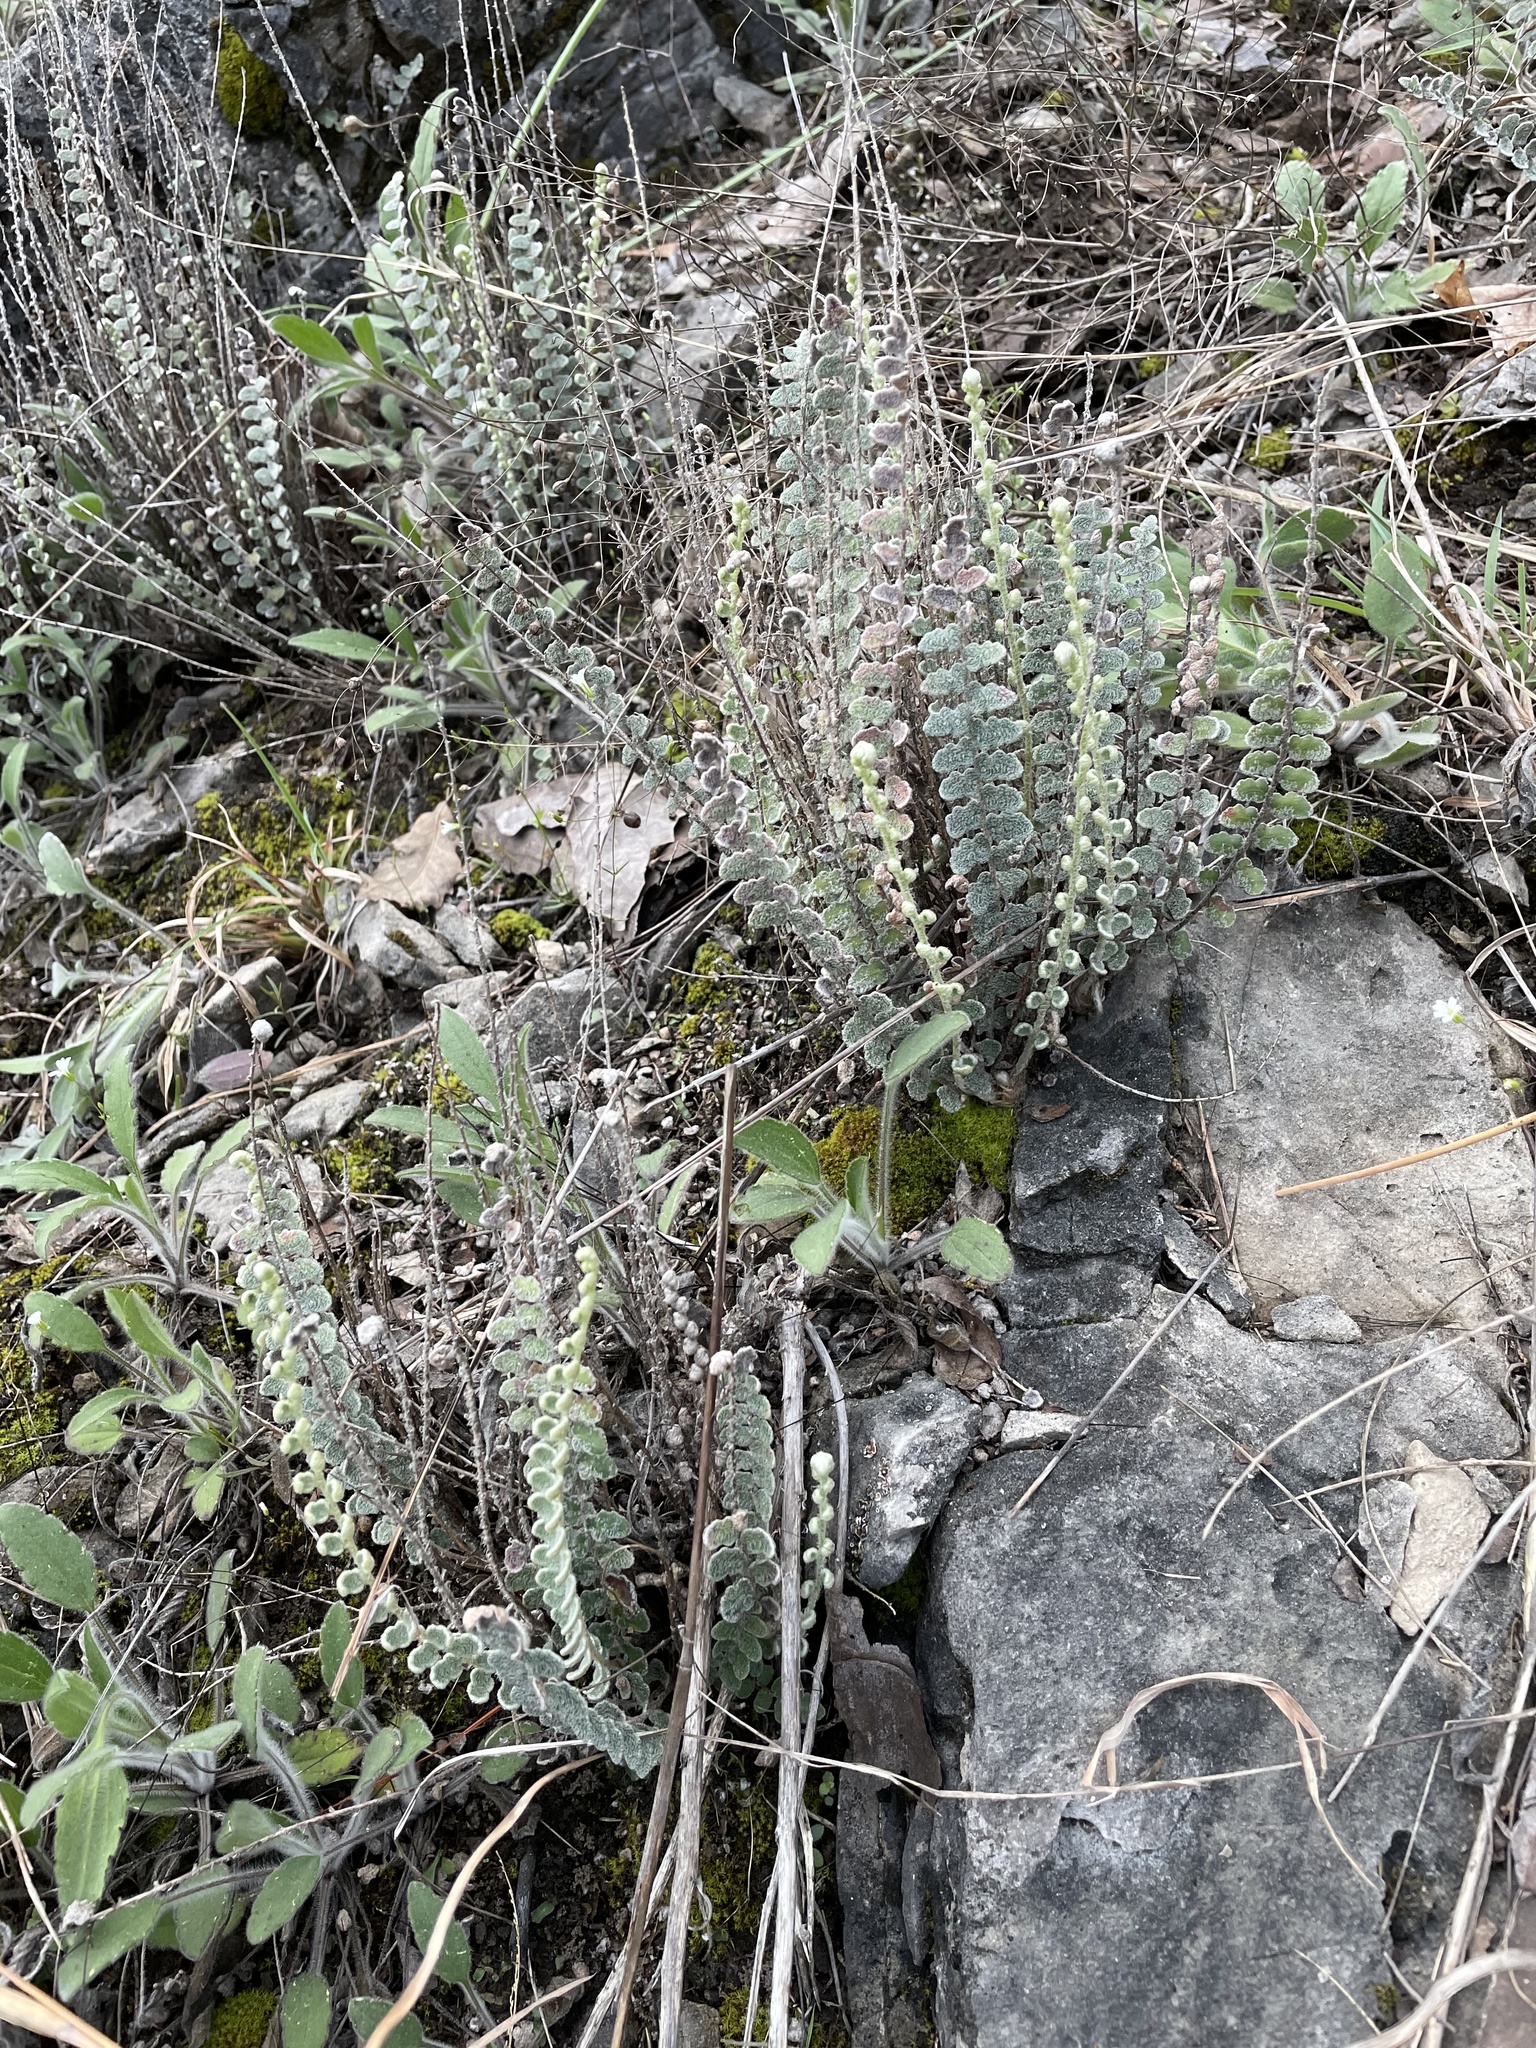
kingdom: Plantae
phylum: Tracheophyta
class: Polypodiopsida
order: Polypodiales
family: Pteridaceae
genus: Astrolepis
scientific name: Astrolepis integerrima
